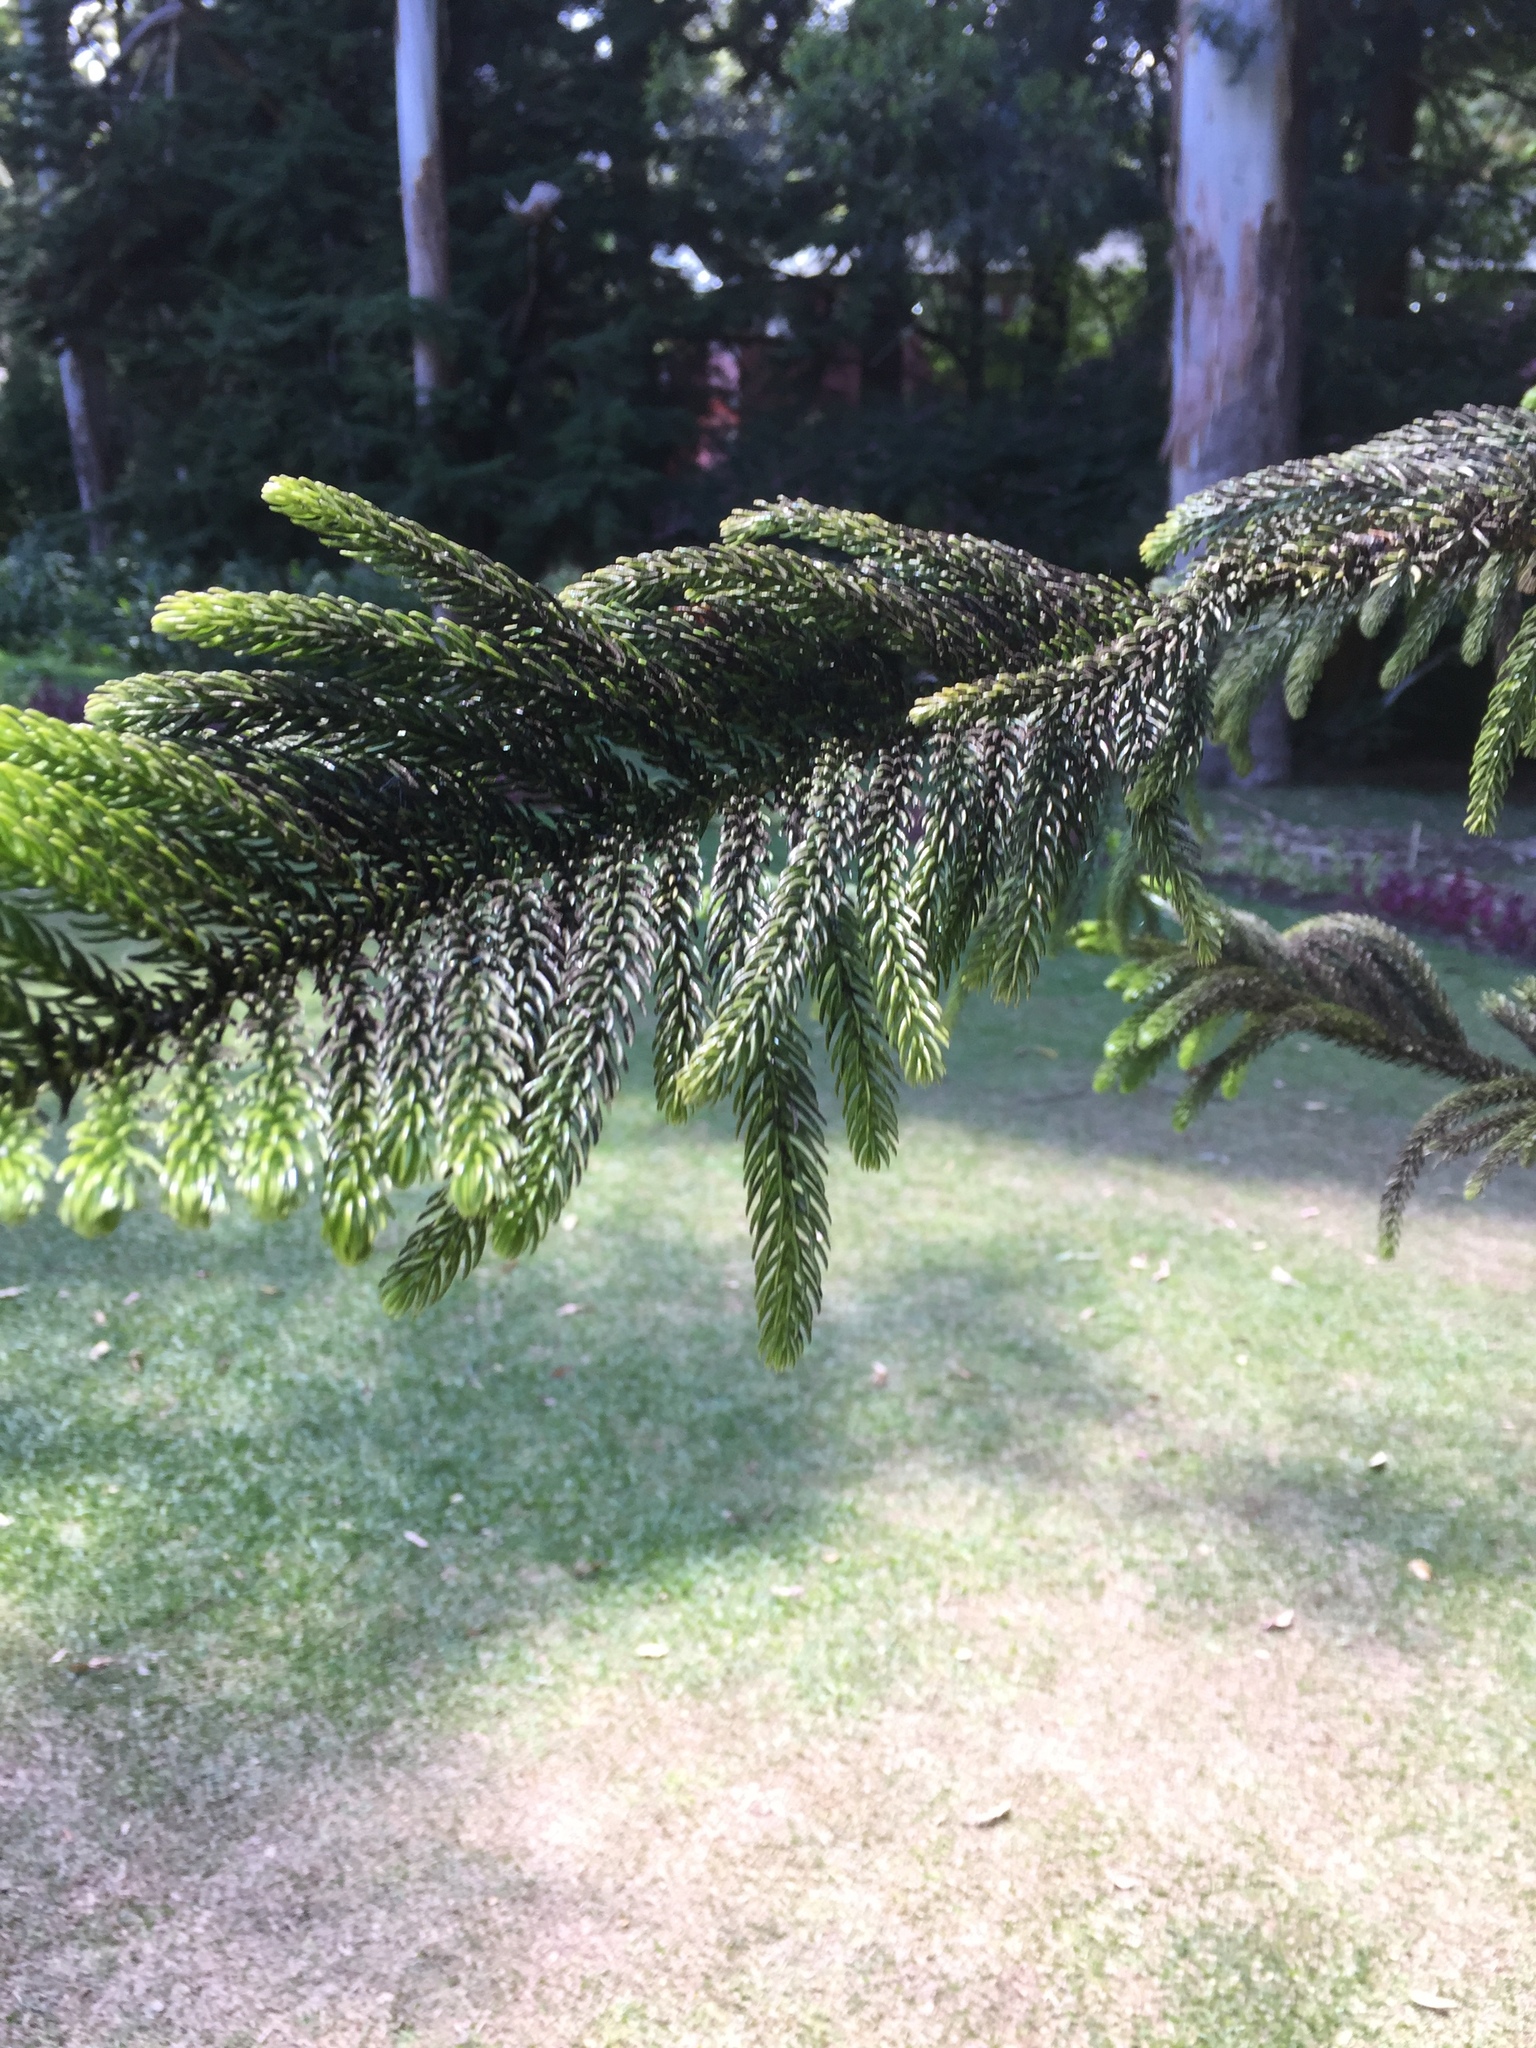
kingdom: Plantae
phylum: Tracheophyta
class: Pinopsida
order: Pinales
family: Araucariaceae
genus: Araucaria
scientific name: Araucaria heterophylla
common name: Norfolk island pine
